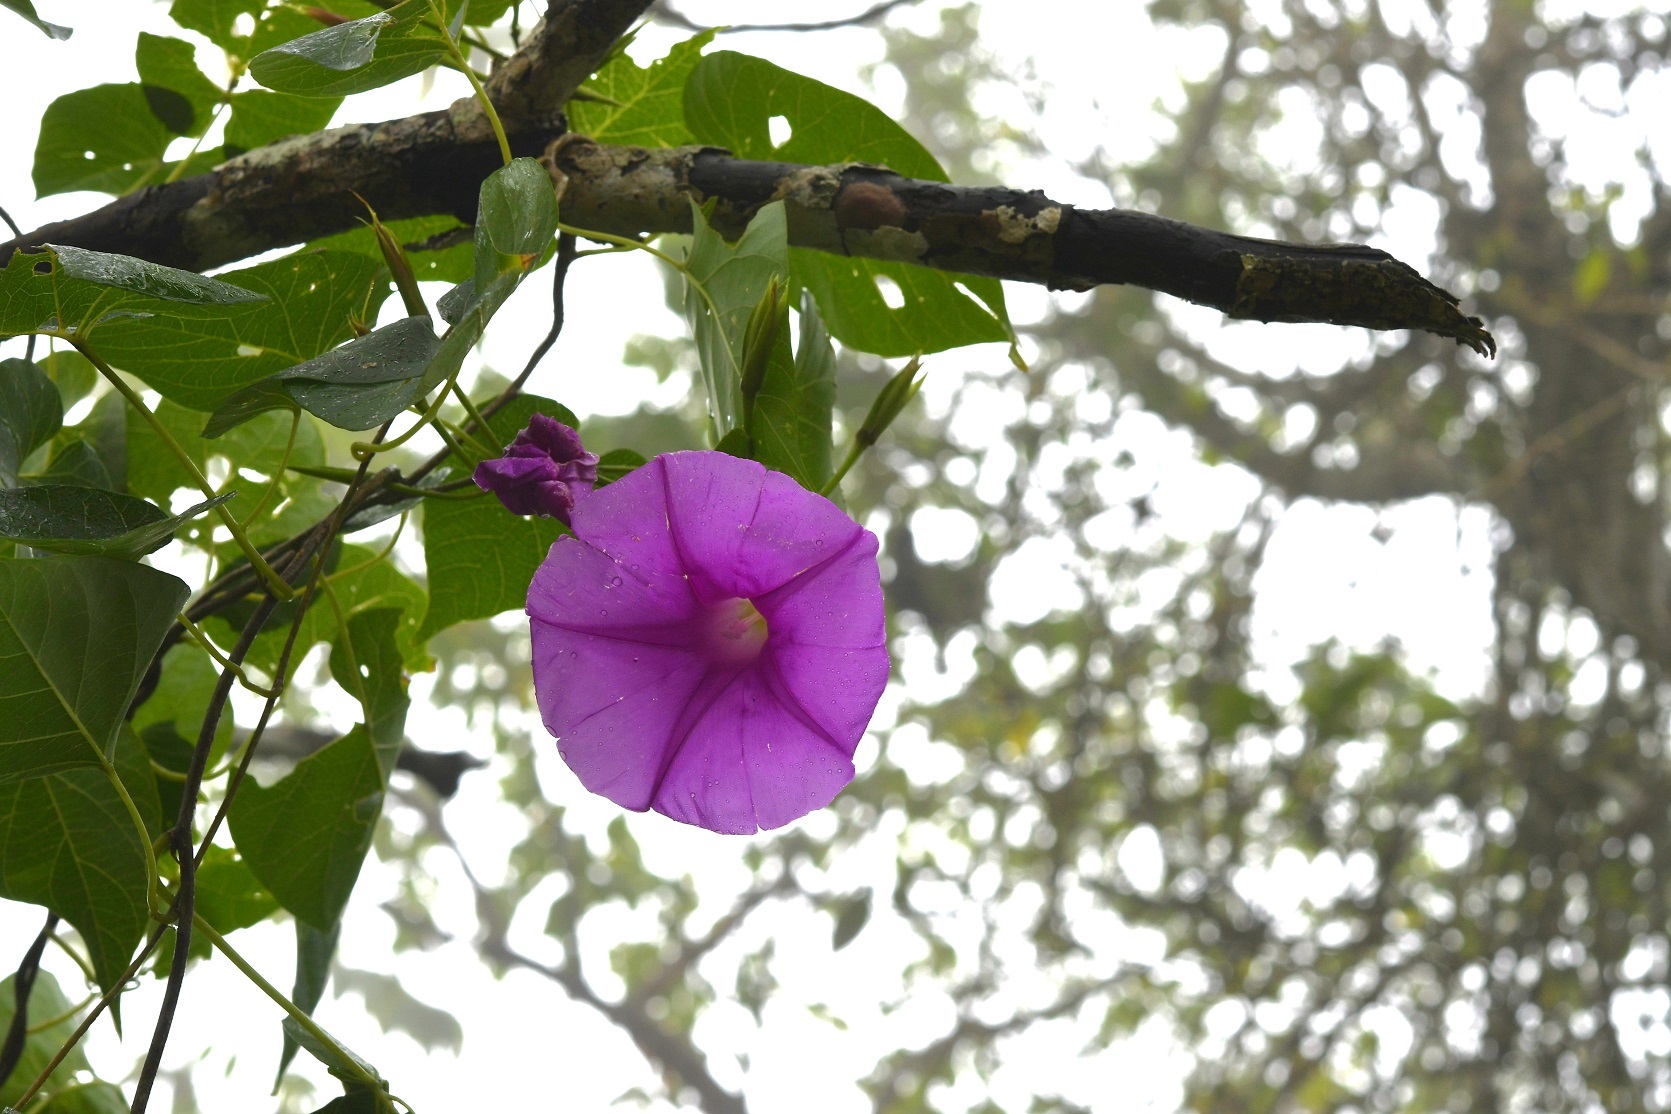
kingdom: Plantae
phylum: Tracheophyta
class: Magnoliopsida
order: Solanales
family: Convolvulaceae
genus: Ipomoea
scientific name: Ipomoea bernoulliana
